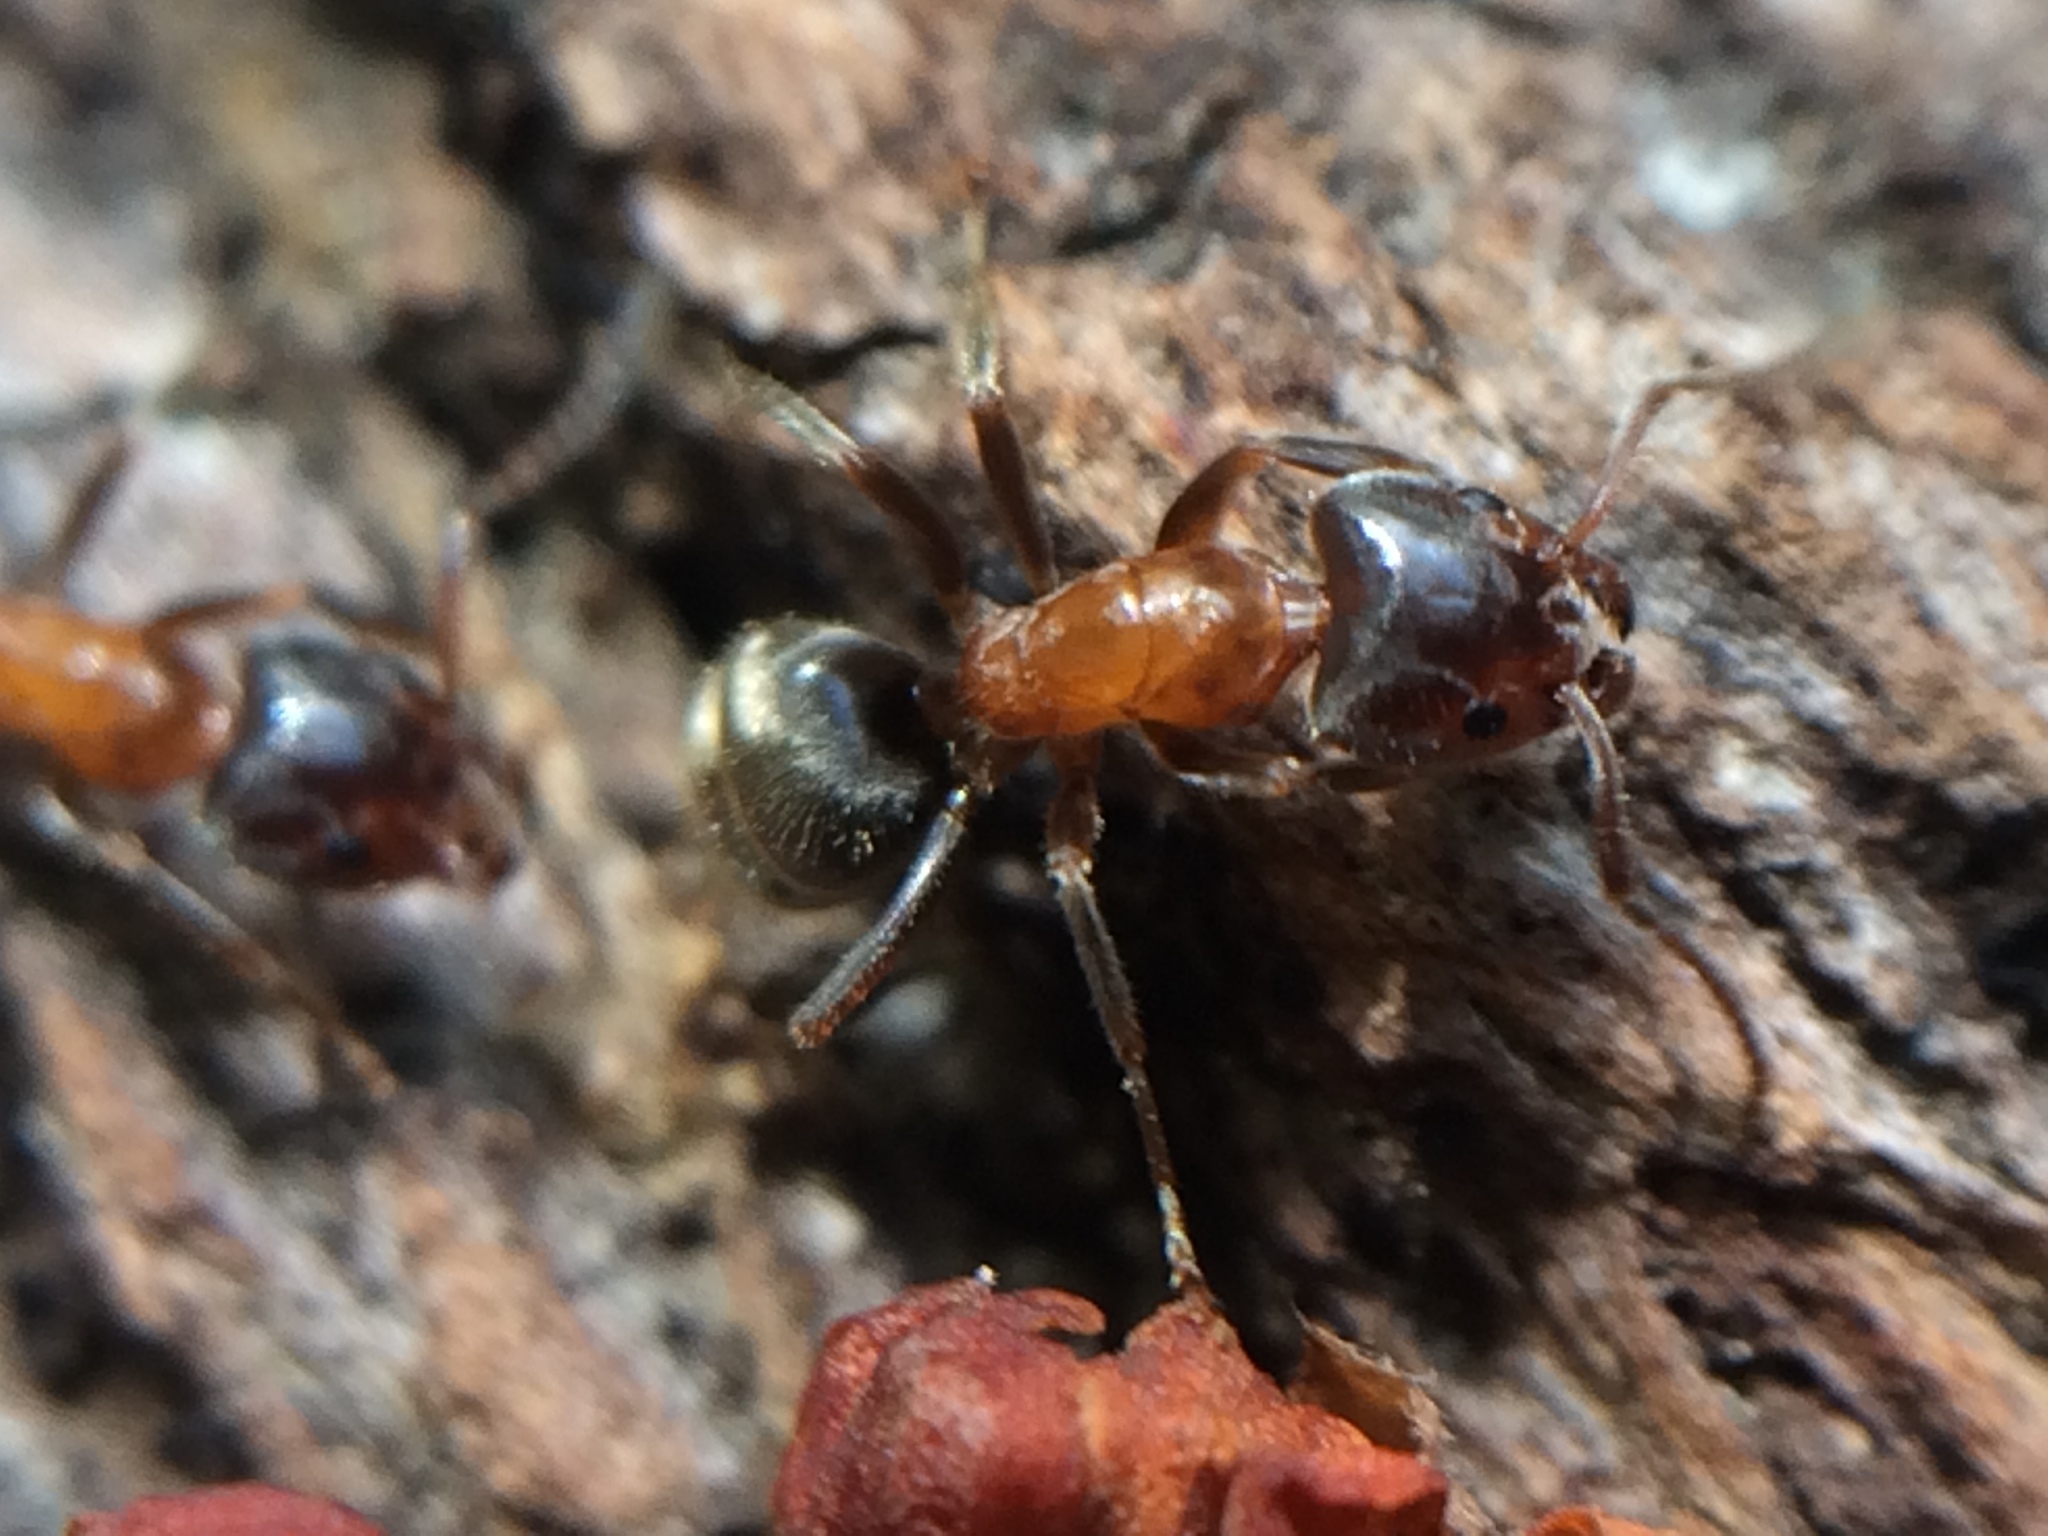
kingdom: Animalia
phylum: Arthropoda
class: Insecta
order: Hymenoptera
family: Formicidae
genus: Liometopum
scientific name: Liometopum occidentale
